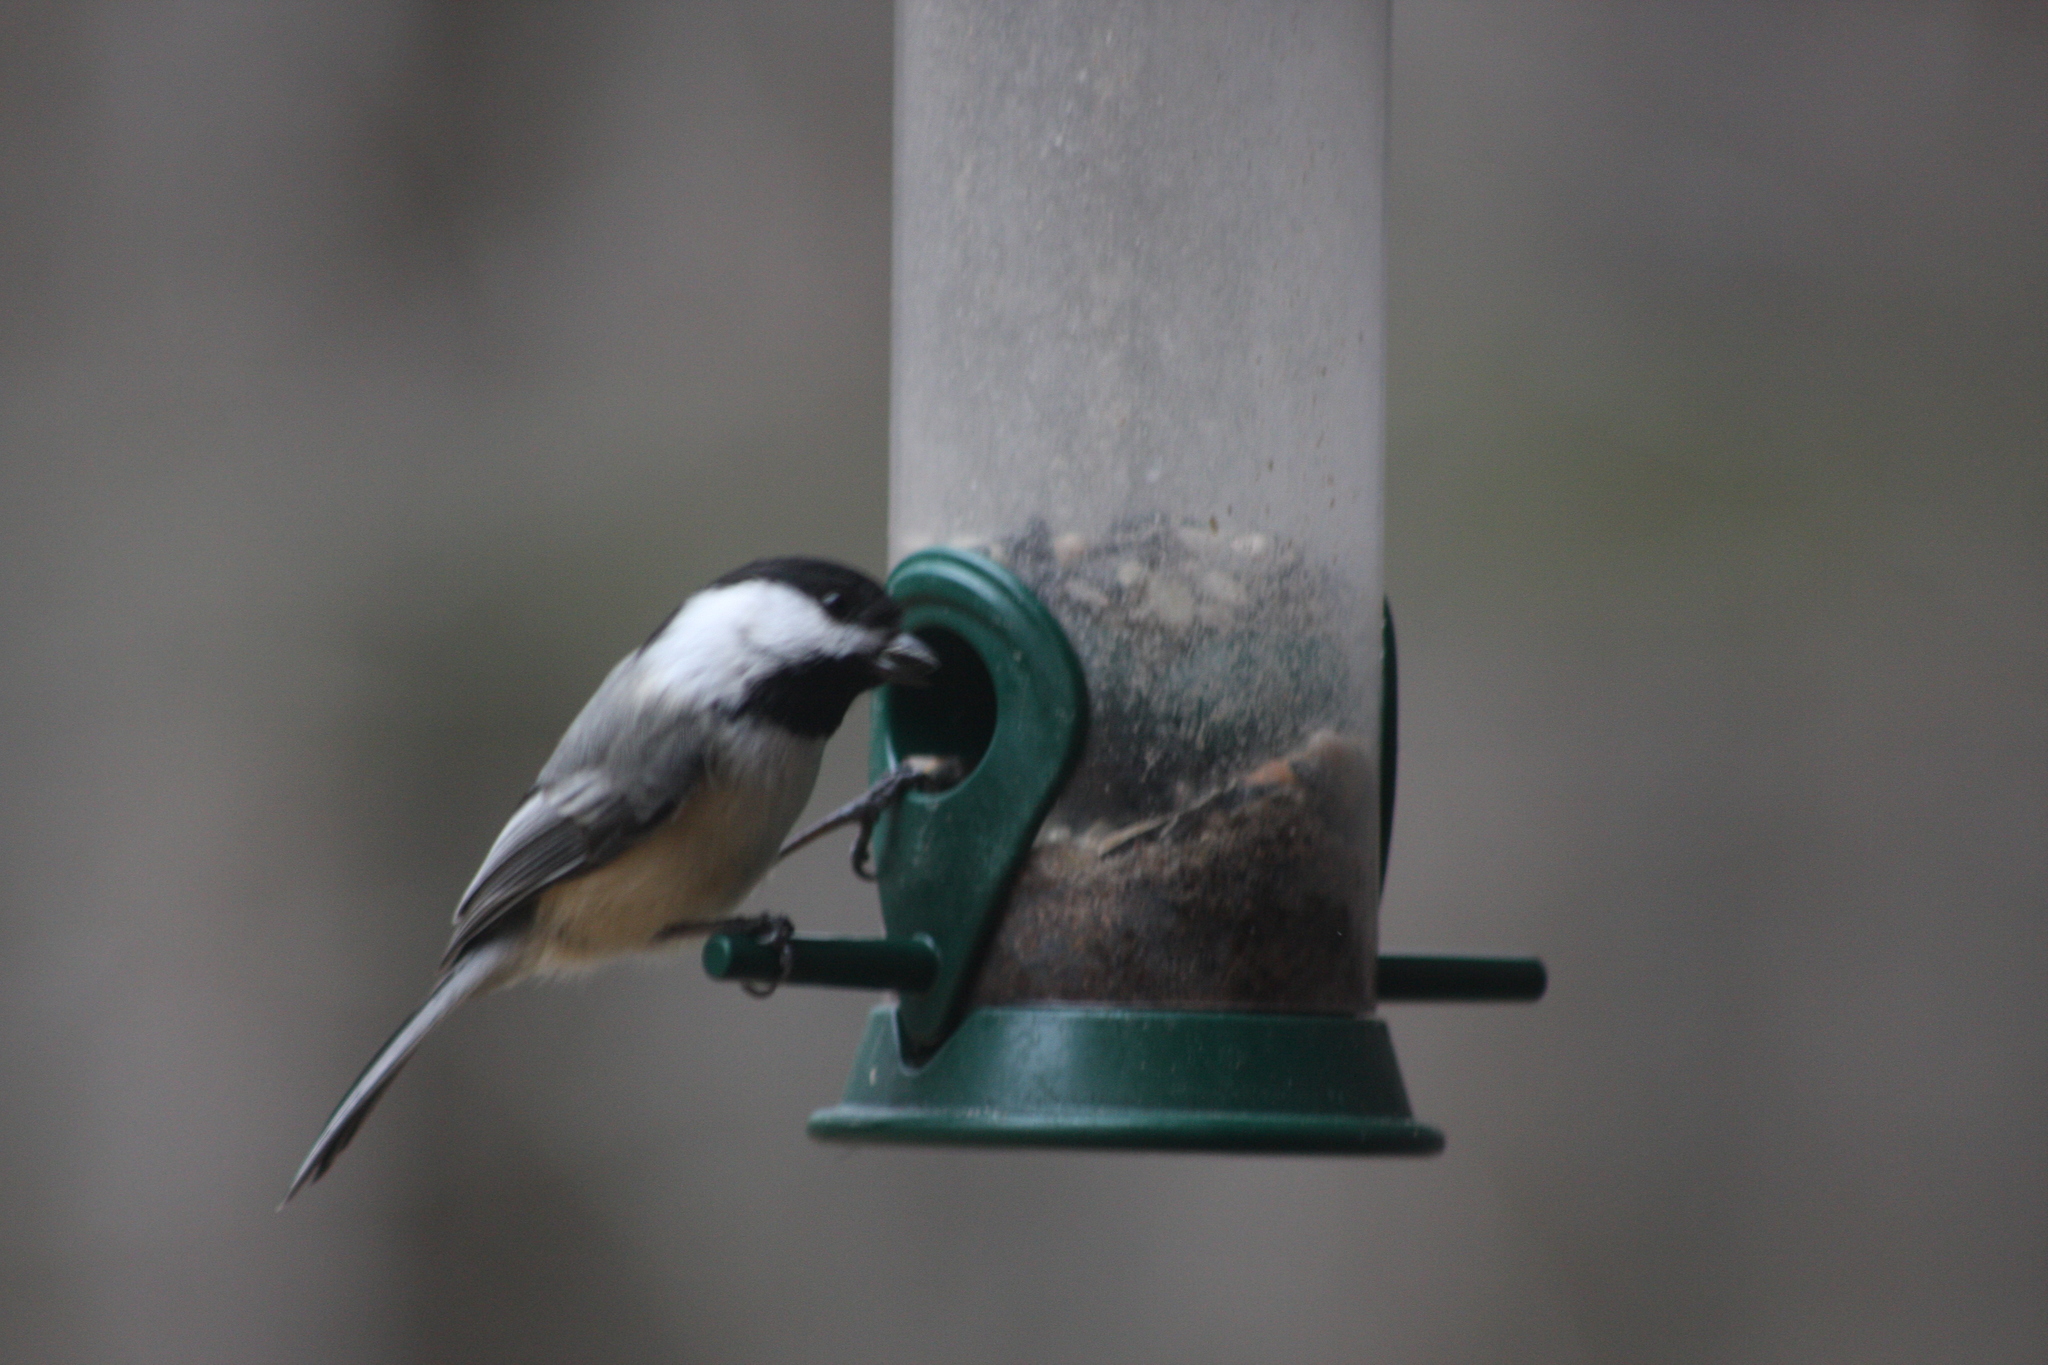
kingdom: Animalia
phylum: Chordata
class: Aves
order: Passeriformes
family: Paridae
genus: Poecile
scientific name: Poecile atricapillus
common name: Black-capped chickadee
